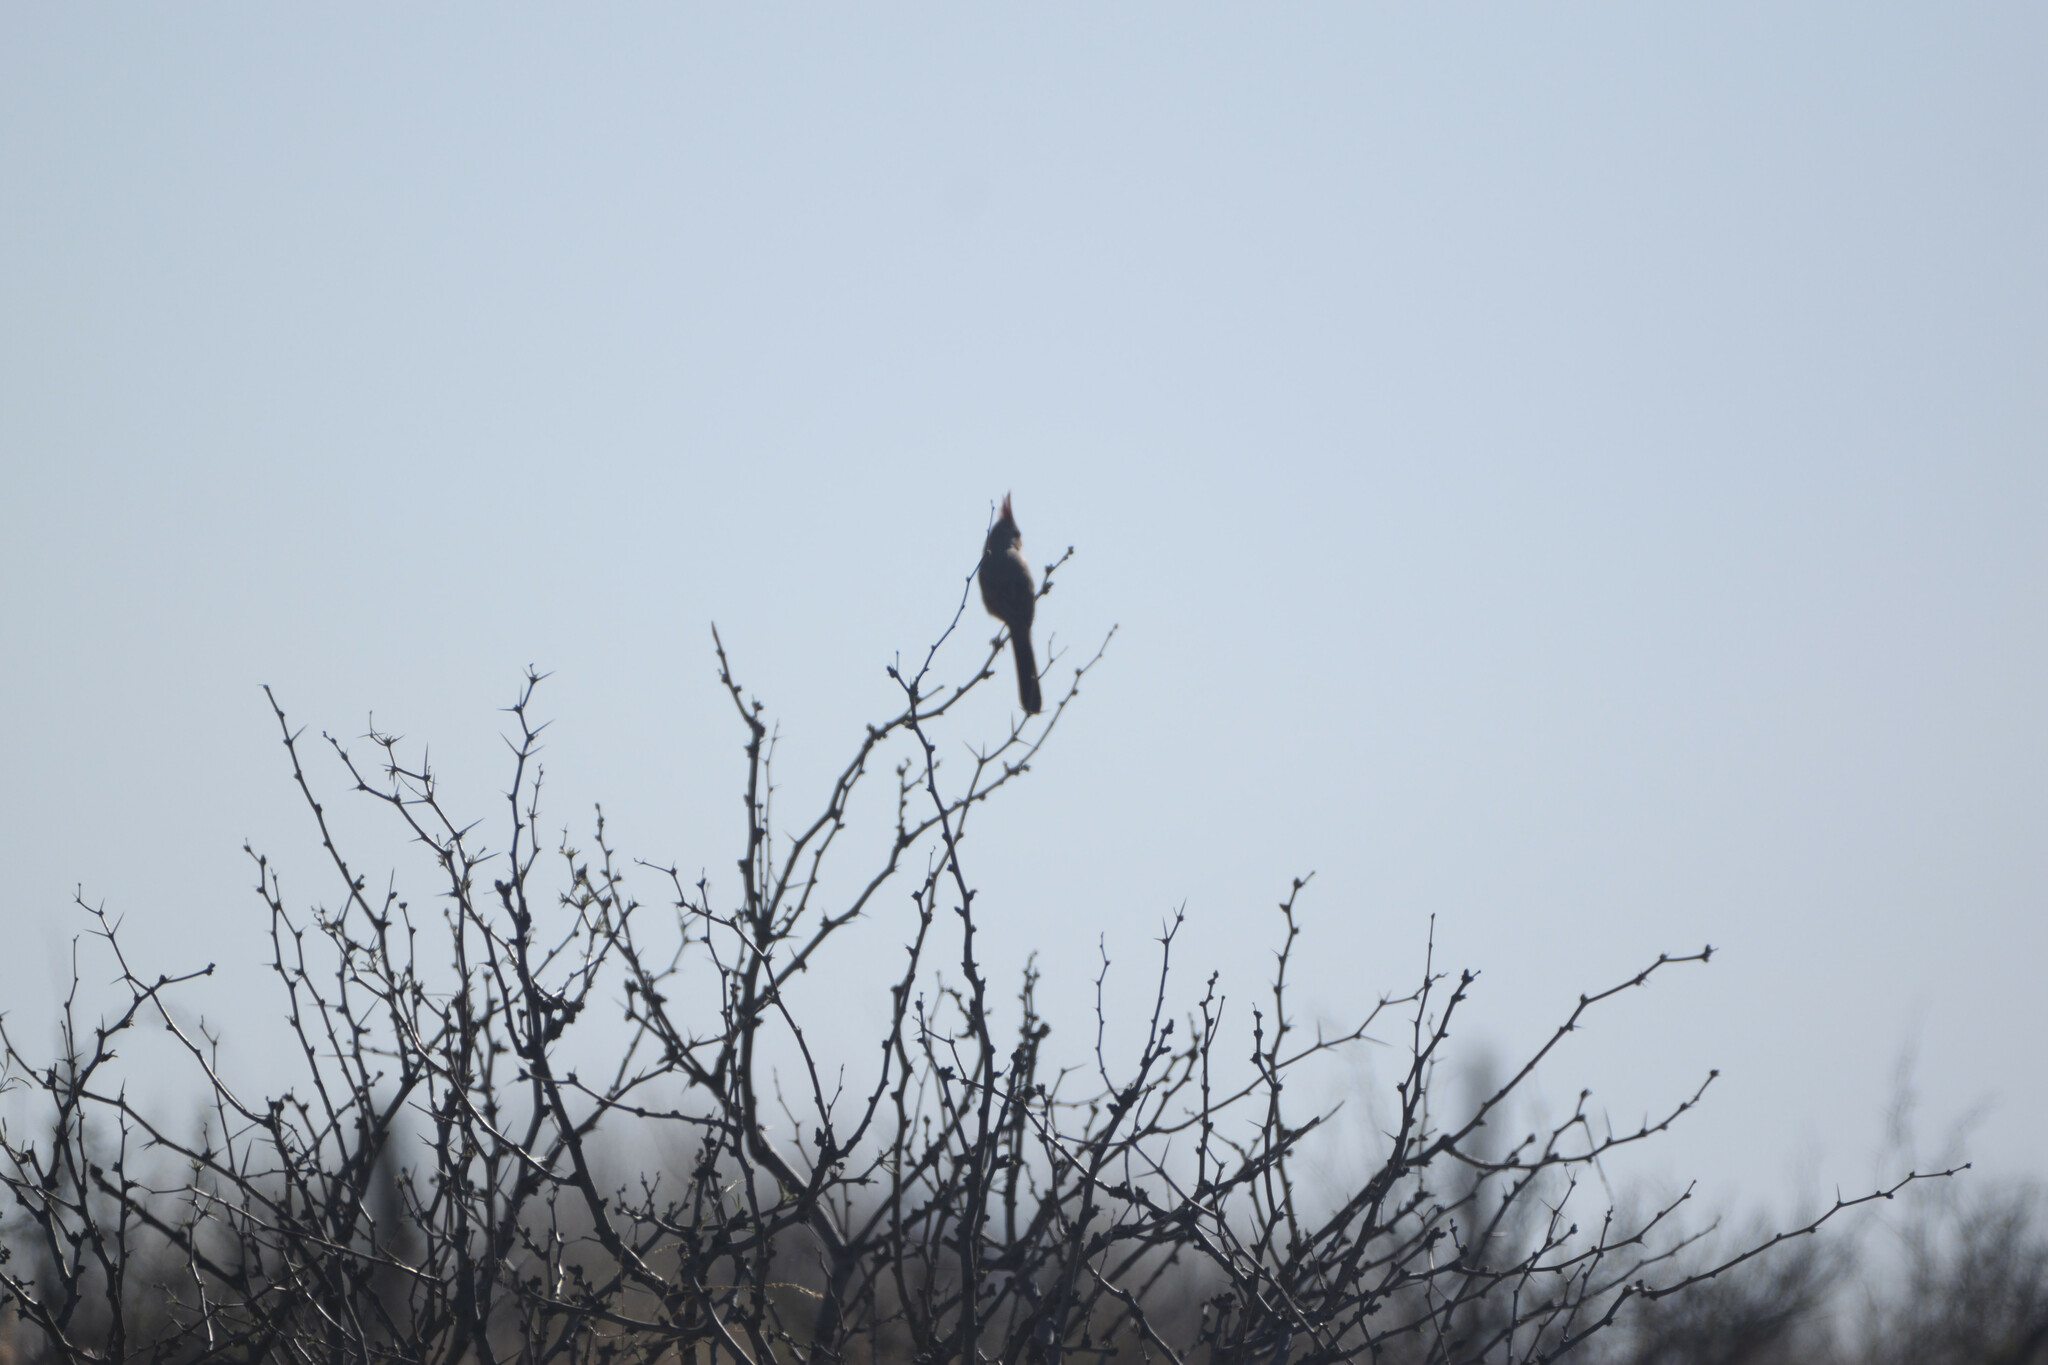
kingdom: Animalia
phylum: Chordata
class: Aves
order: Passeriformes
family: Cardinalidae
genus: Cardinalis
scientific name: Cardinalis sinuatus
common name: Pyrrhuloxia
